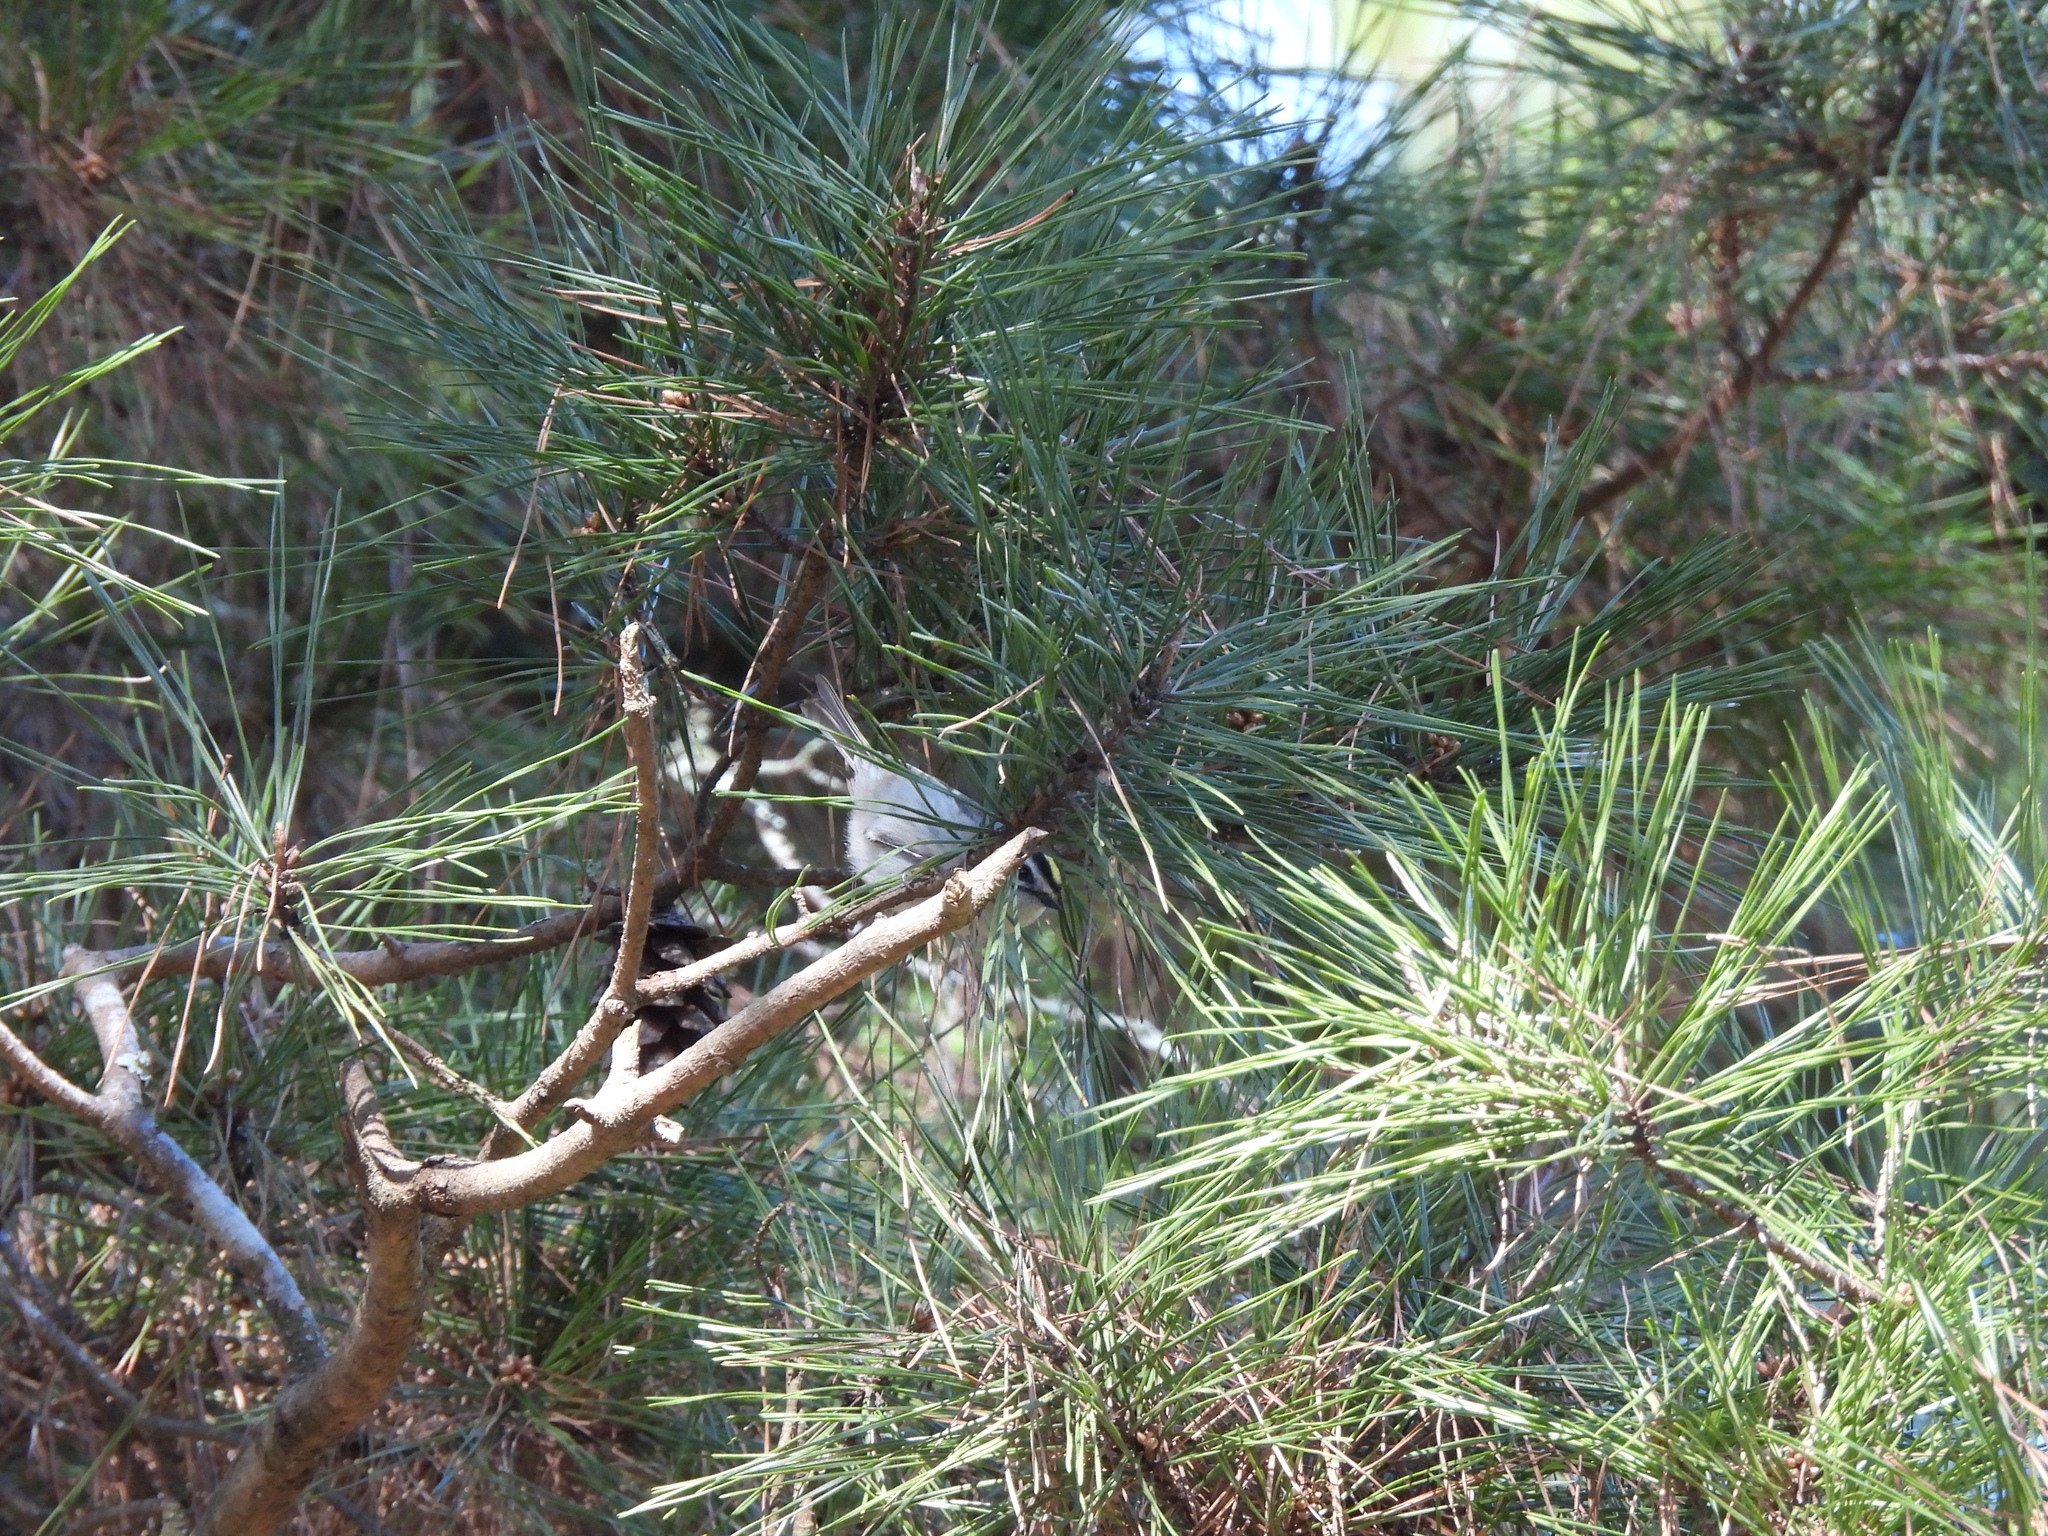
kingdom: Animalia
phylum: Chordata
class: Aves
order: Passeriformes
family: Regulidae
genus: Regulus
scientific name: Regulus satrapa
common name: Golden-crowned kinglet
